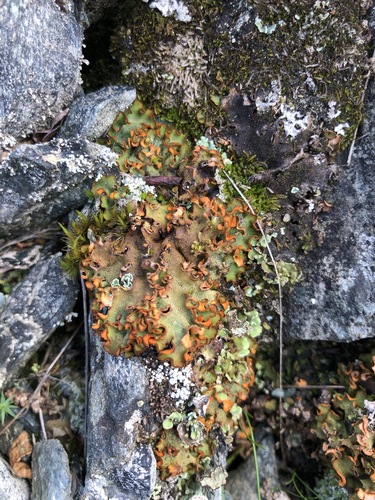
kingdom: Fungi
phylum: Ascomycota
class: Lecanoromycetes
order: Peltigerales
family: Peltigeraceae
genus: Solorina
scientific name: Solorina crocea
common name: Mountain saffron
